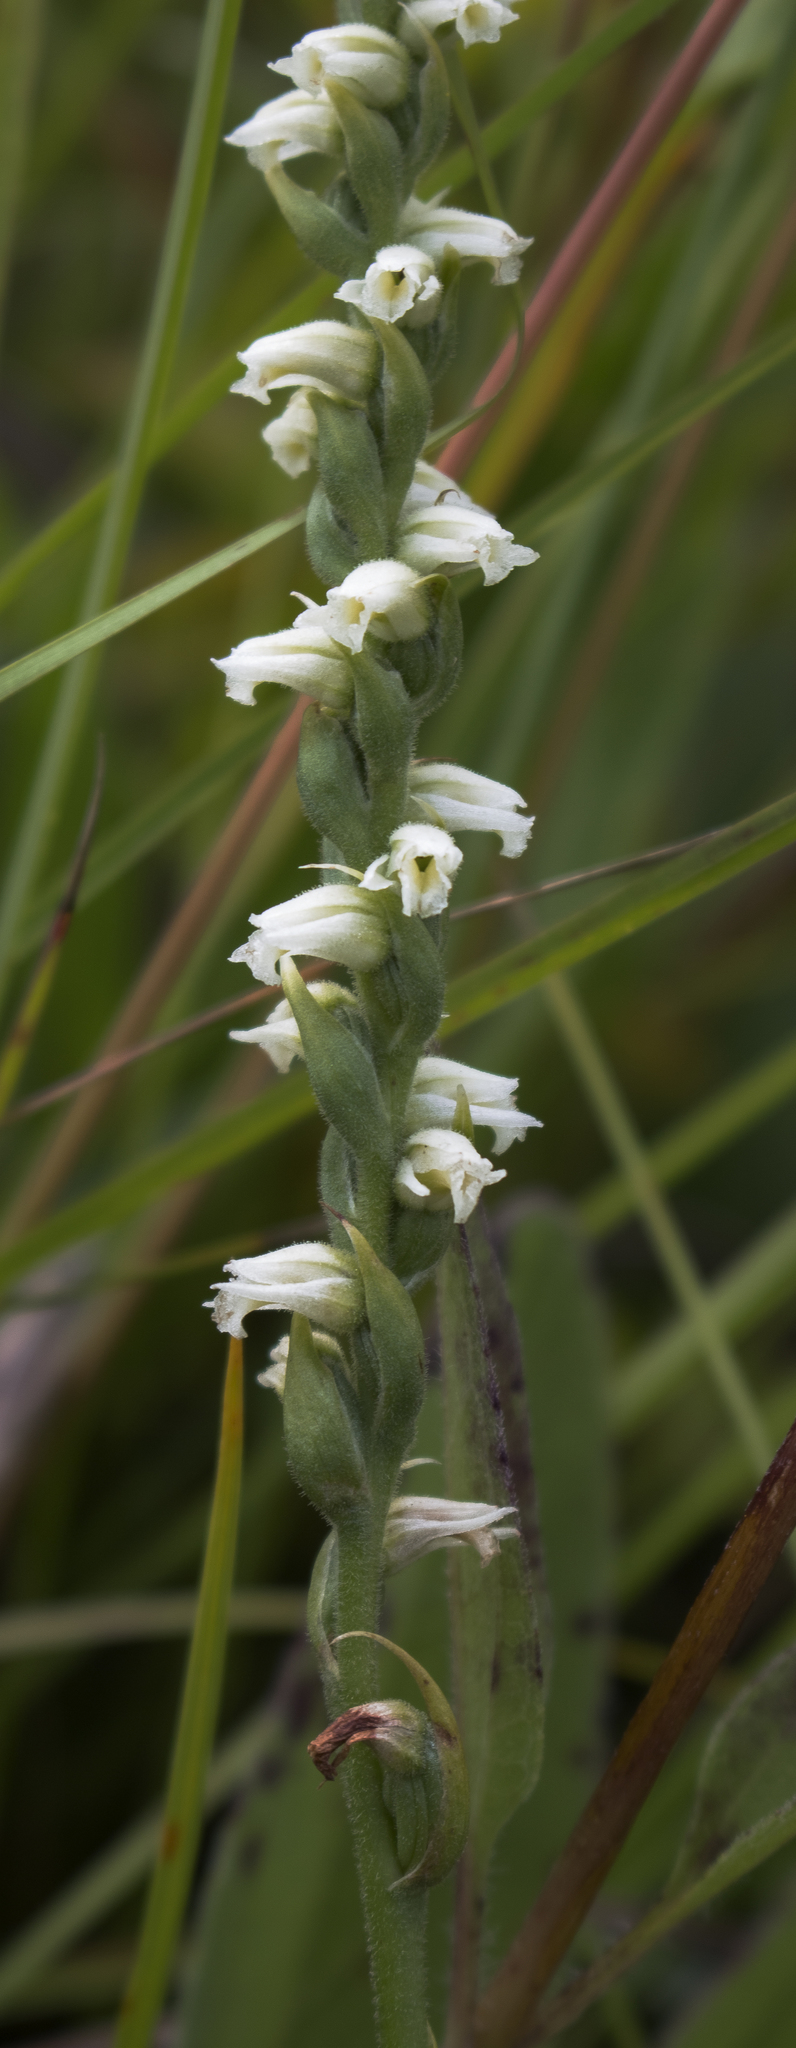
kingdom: Plantae
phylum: Tracheophyta
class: Liliopsida
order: Asparagales
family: Orchidaceae
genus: Spiranthes
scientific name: Spiranthes casei
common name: Case's ladies'-tresses
